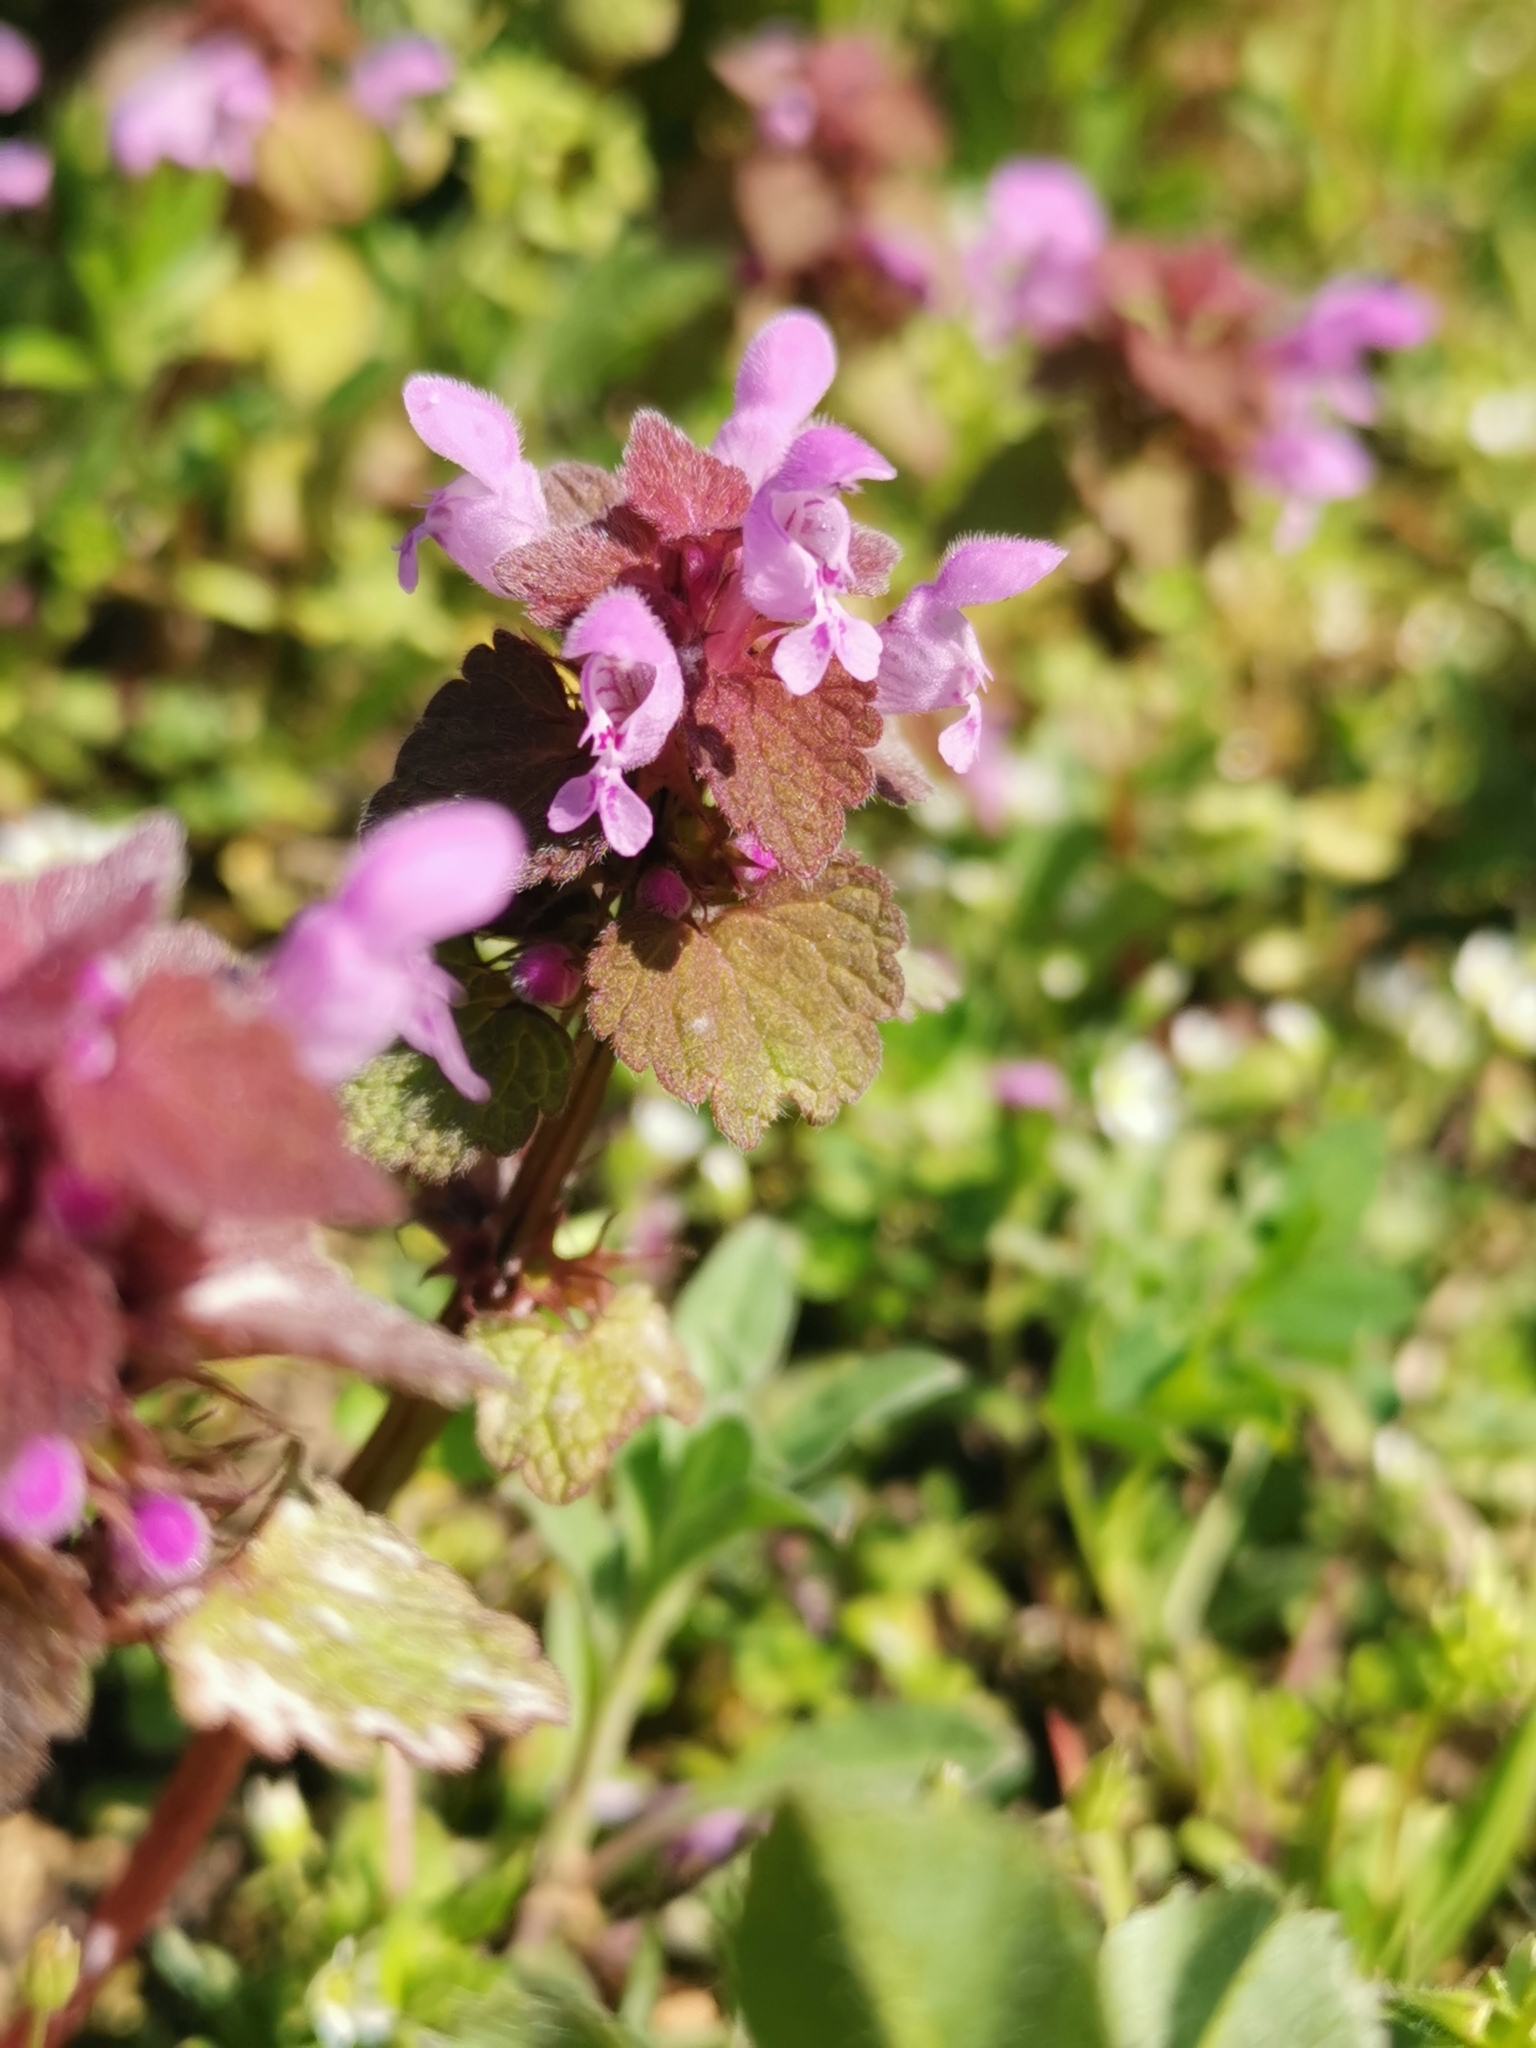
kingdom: Plantae
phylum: Tracheophyta
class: Magnoliopsida
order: Lamiales
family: Lamiaceae
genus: Lamium
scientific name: Lamium purpureum
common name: Red dead-nettle
